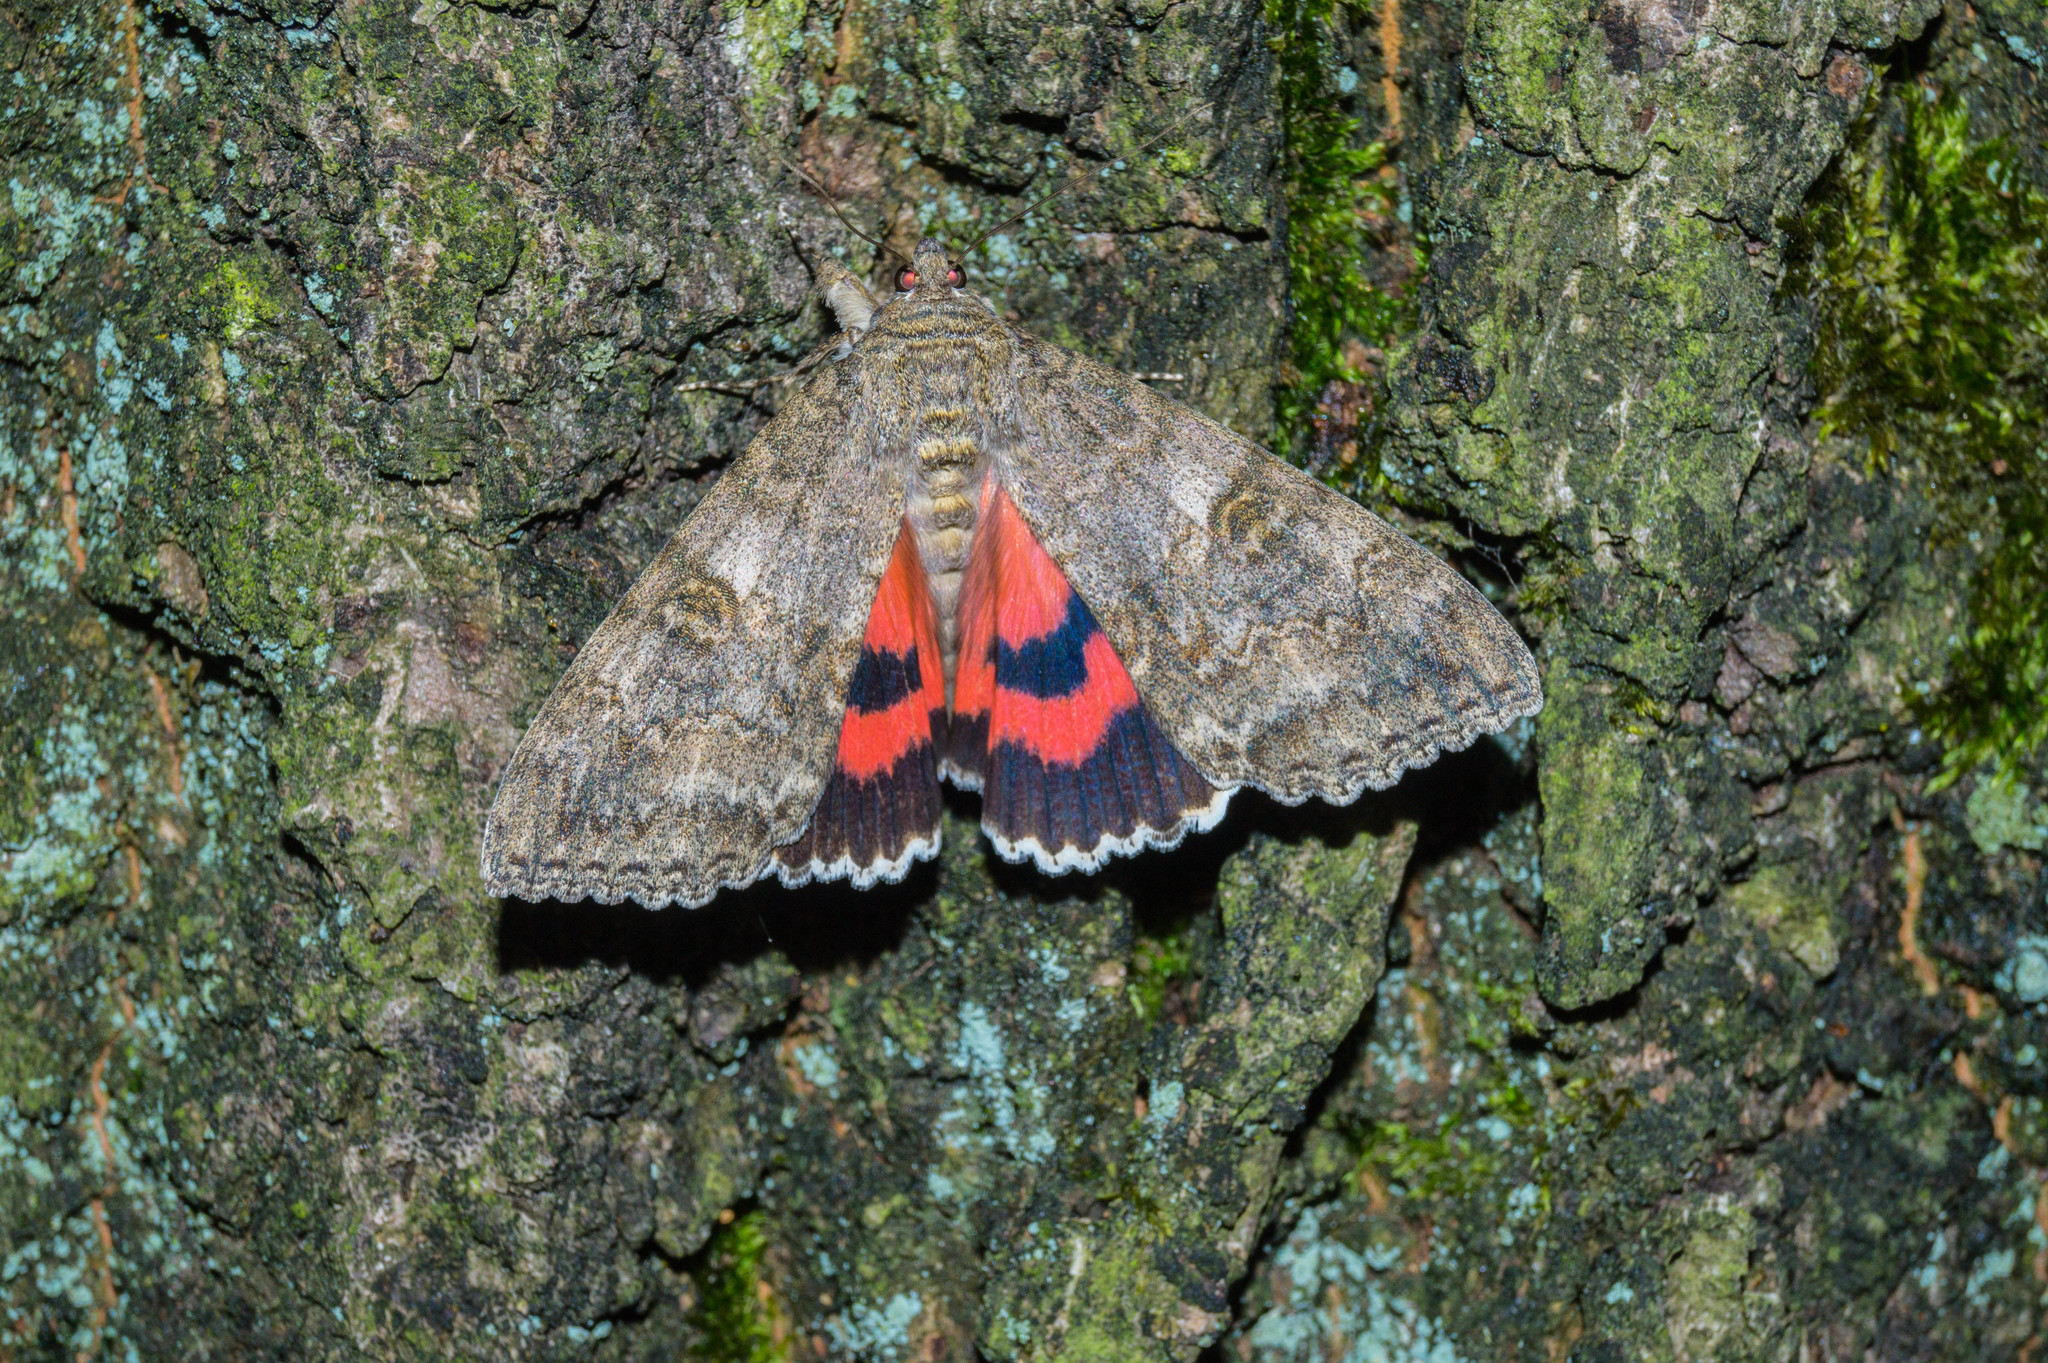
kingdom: Animalia
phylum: Arthropoda
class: Insecta
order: Lepidoptera
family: Erebidae
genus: Catocala
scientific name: Catocala nupta
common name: Red underwing
